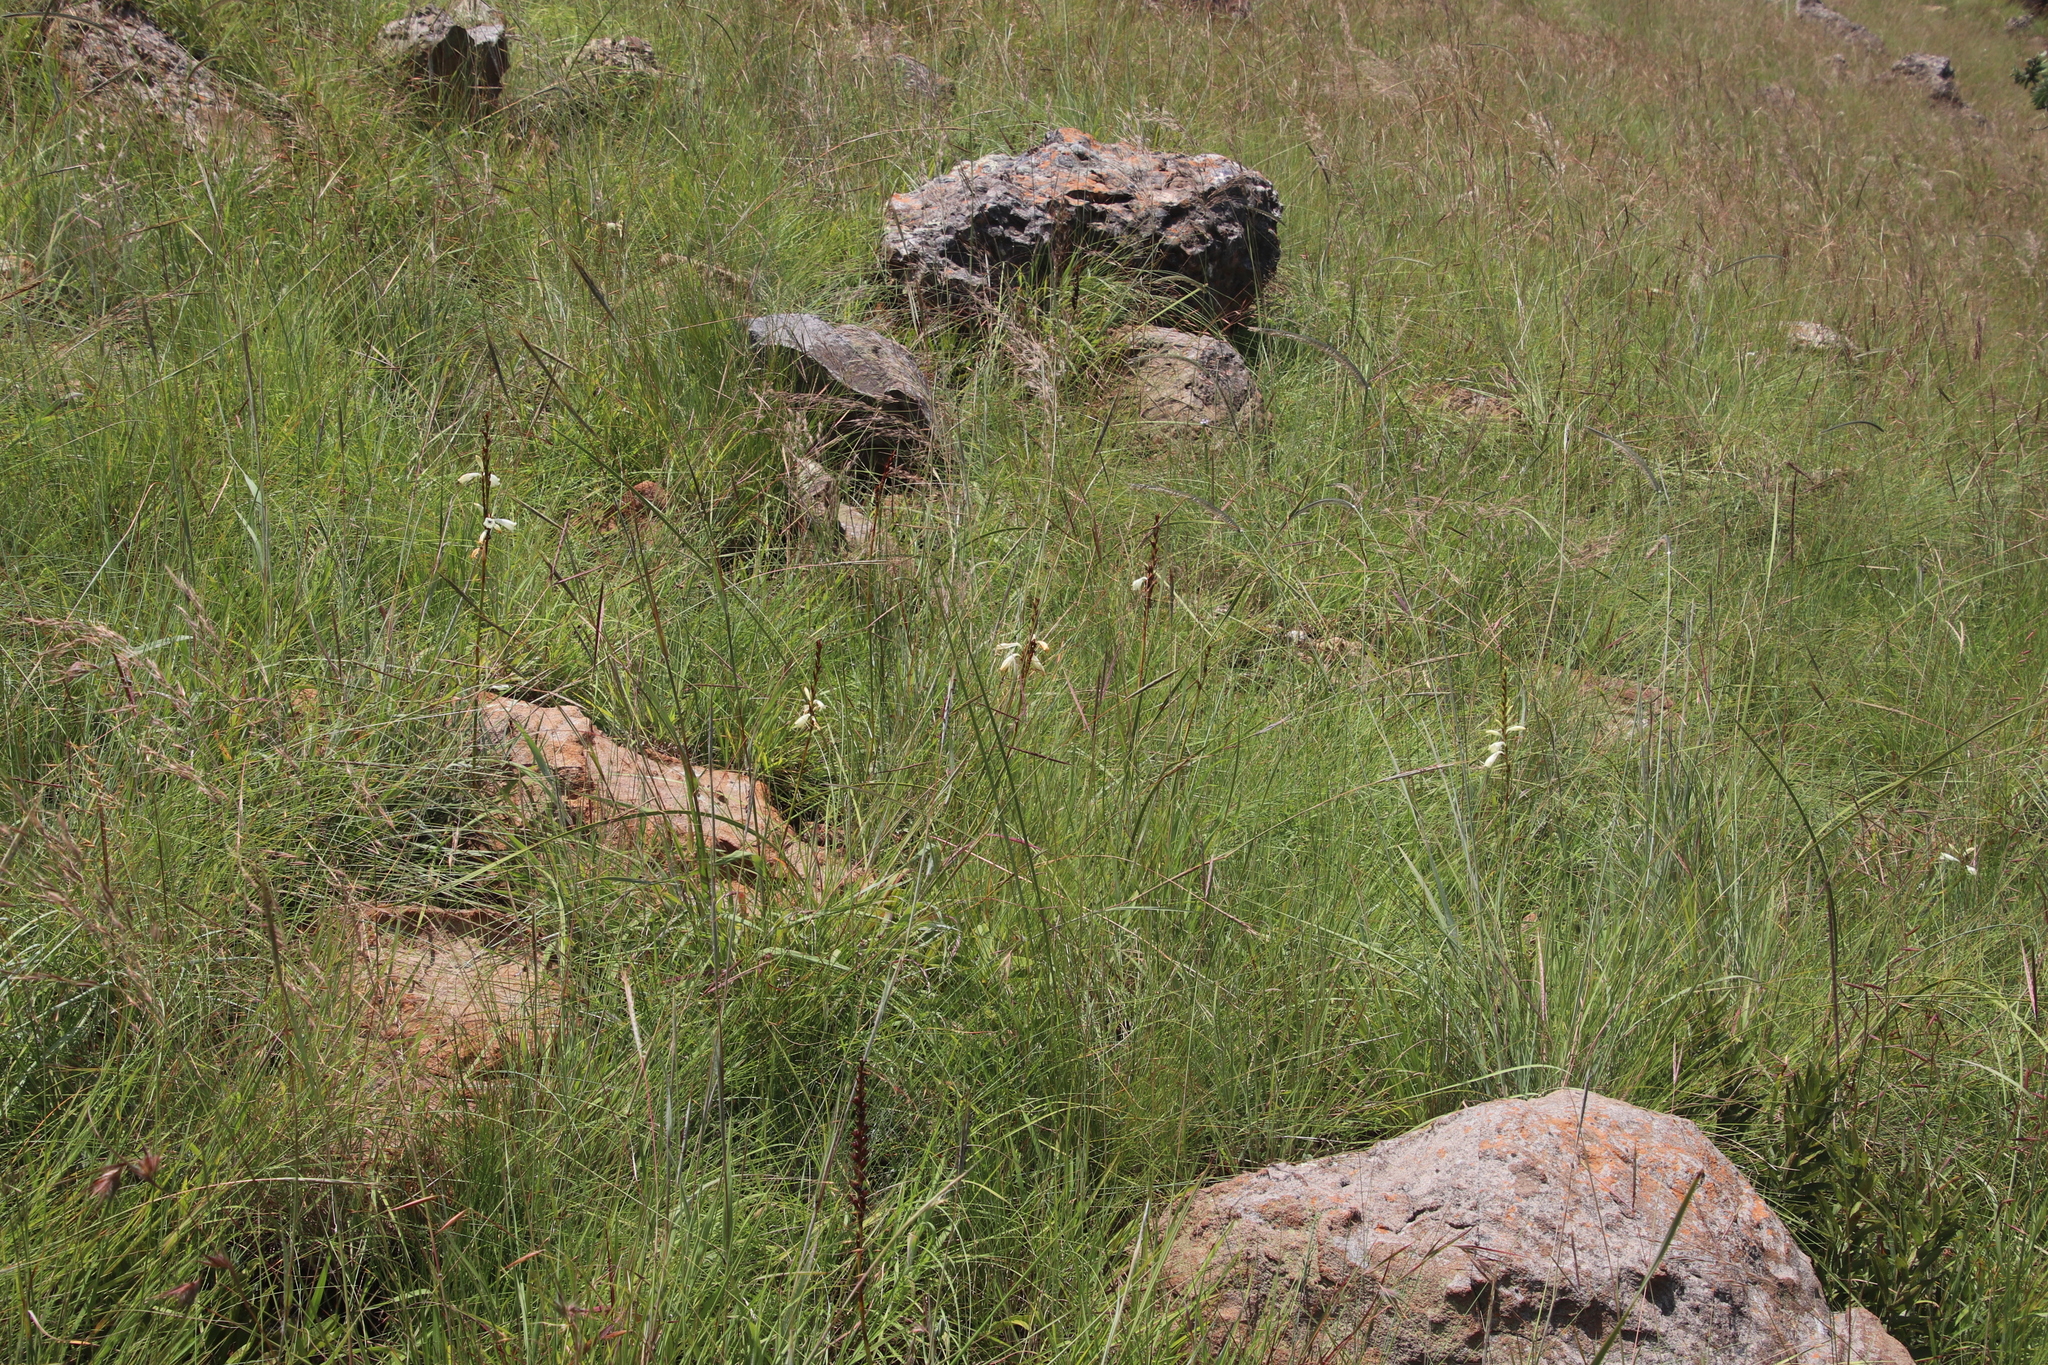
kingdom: Plantae
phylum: Tracheophyta
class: Liliopsida
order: Asparagales
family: Iridaceae
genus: Watsonia
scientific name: Watsonia watsonioides
